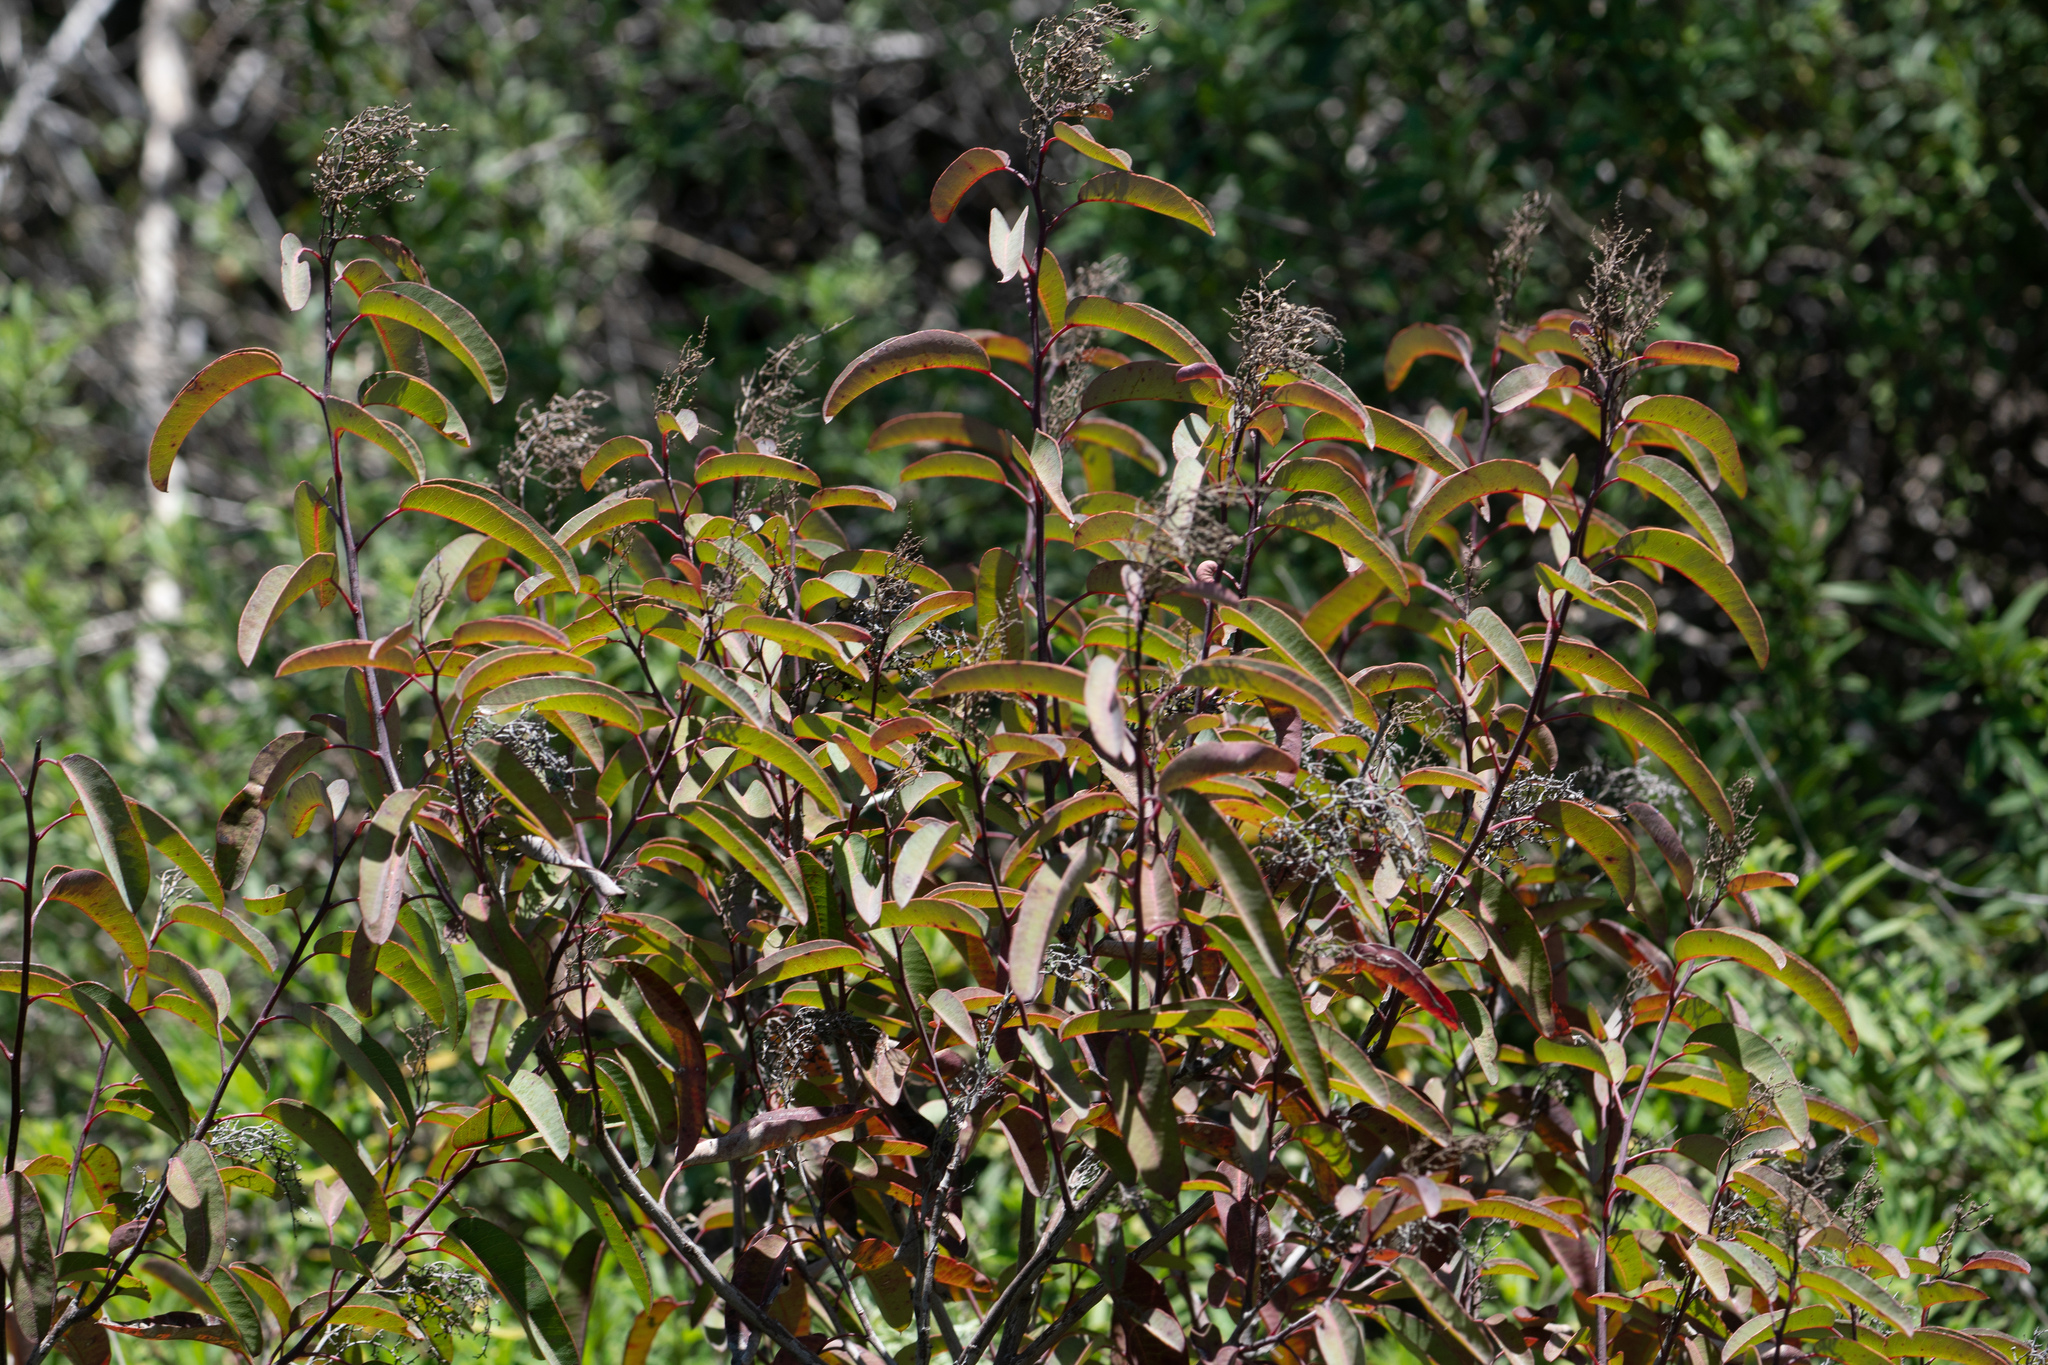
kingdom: Plantae
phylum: Tracheophyta
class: Magnoliopsida
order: Sapindales
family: Anacardiaceae
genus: Malosma
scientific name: Malosma laurina
